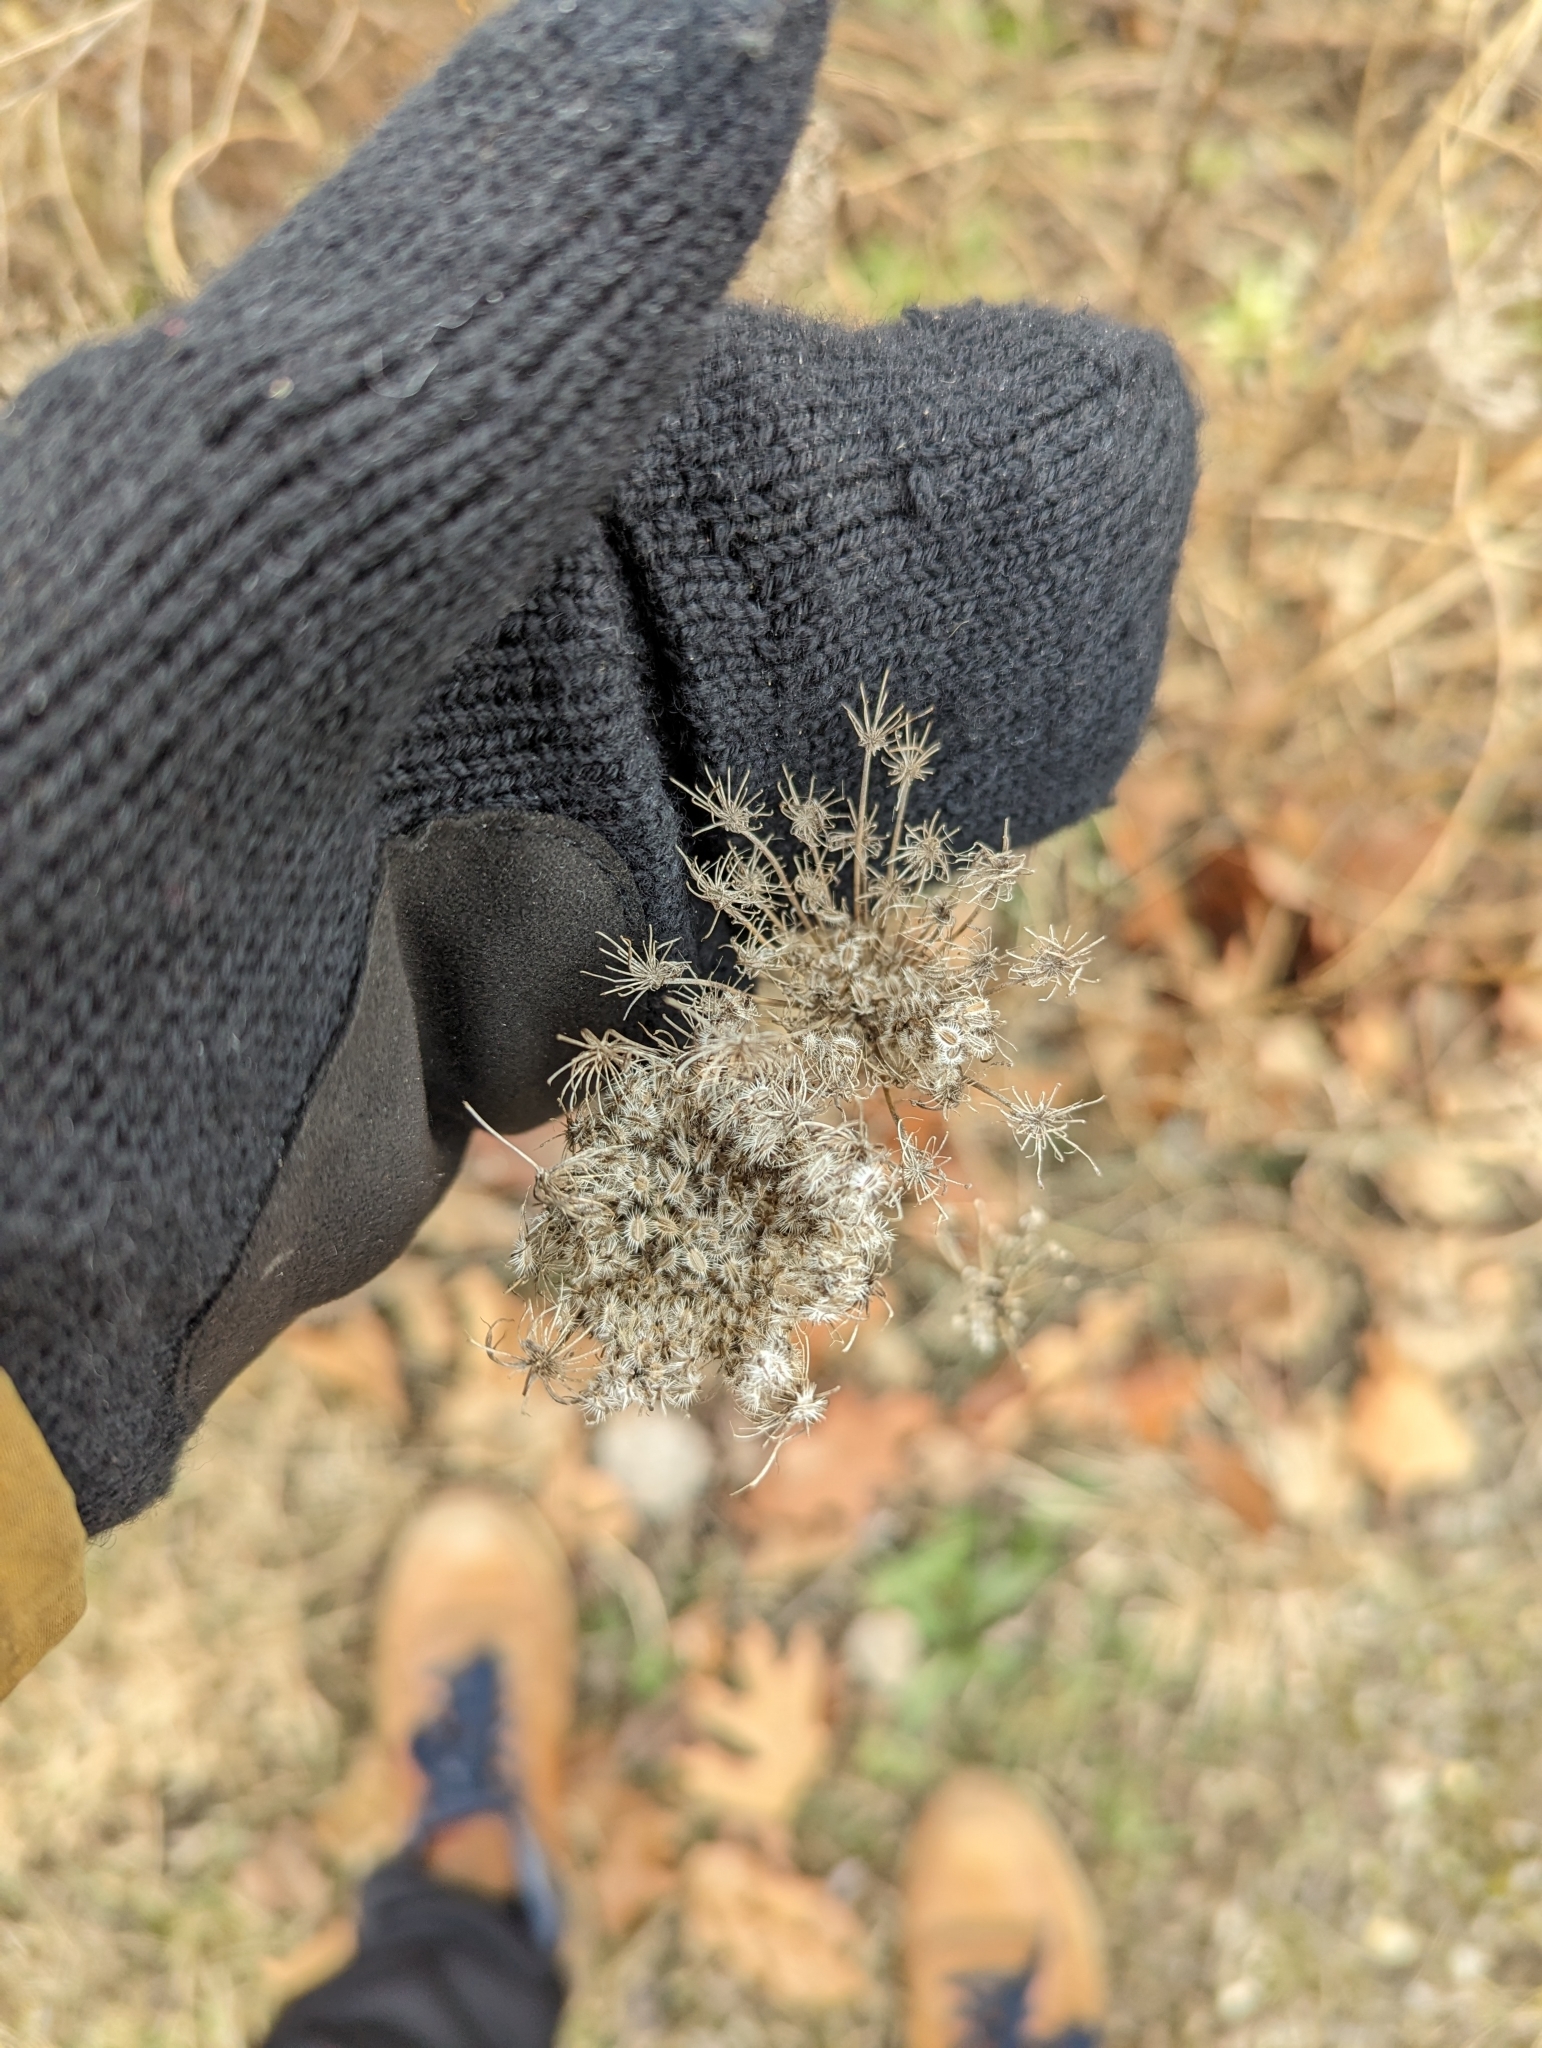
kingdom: Plantae
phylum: Tracheophyta
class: Magnoliopsida
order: Apiales
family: Apiaceae
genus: Daucus
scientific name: Daucus carota
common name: Wild carrot
